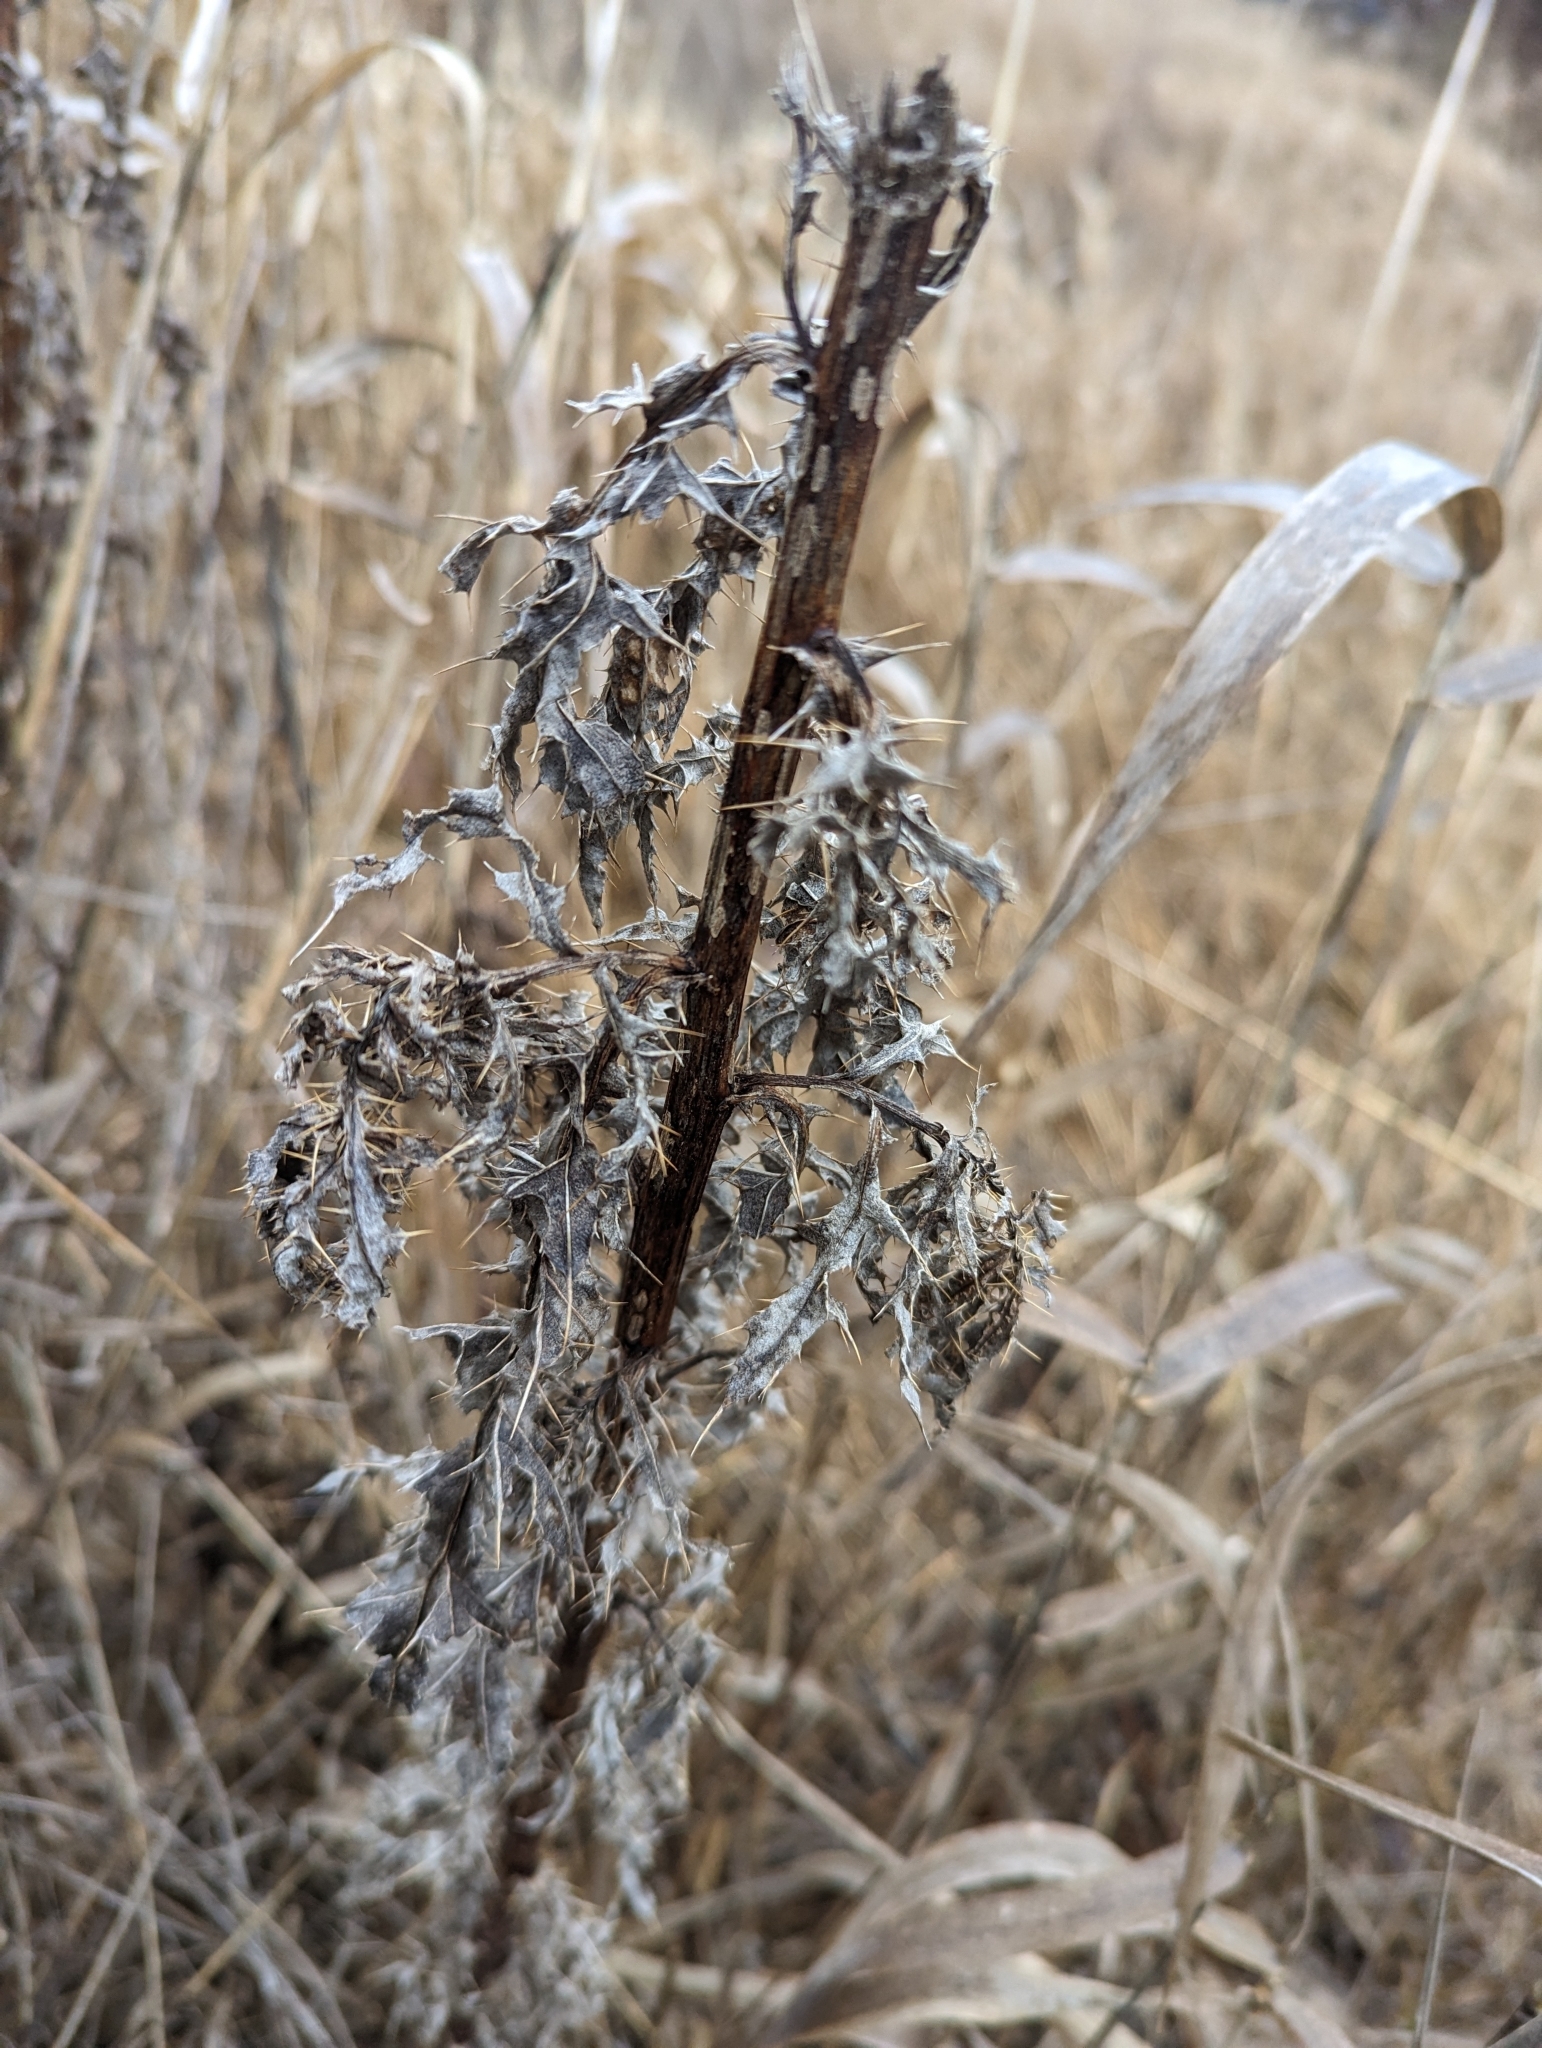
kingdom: Plantae
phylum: Tracheophyta
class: Magnoliopsida
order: Asterales
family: Asteraceae
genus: Cirsium
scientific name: Cirsium arvense
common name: Creeping thistle
